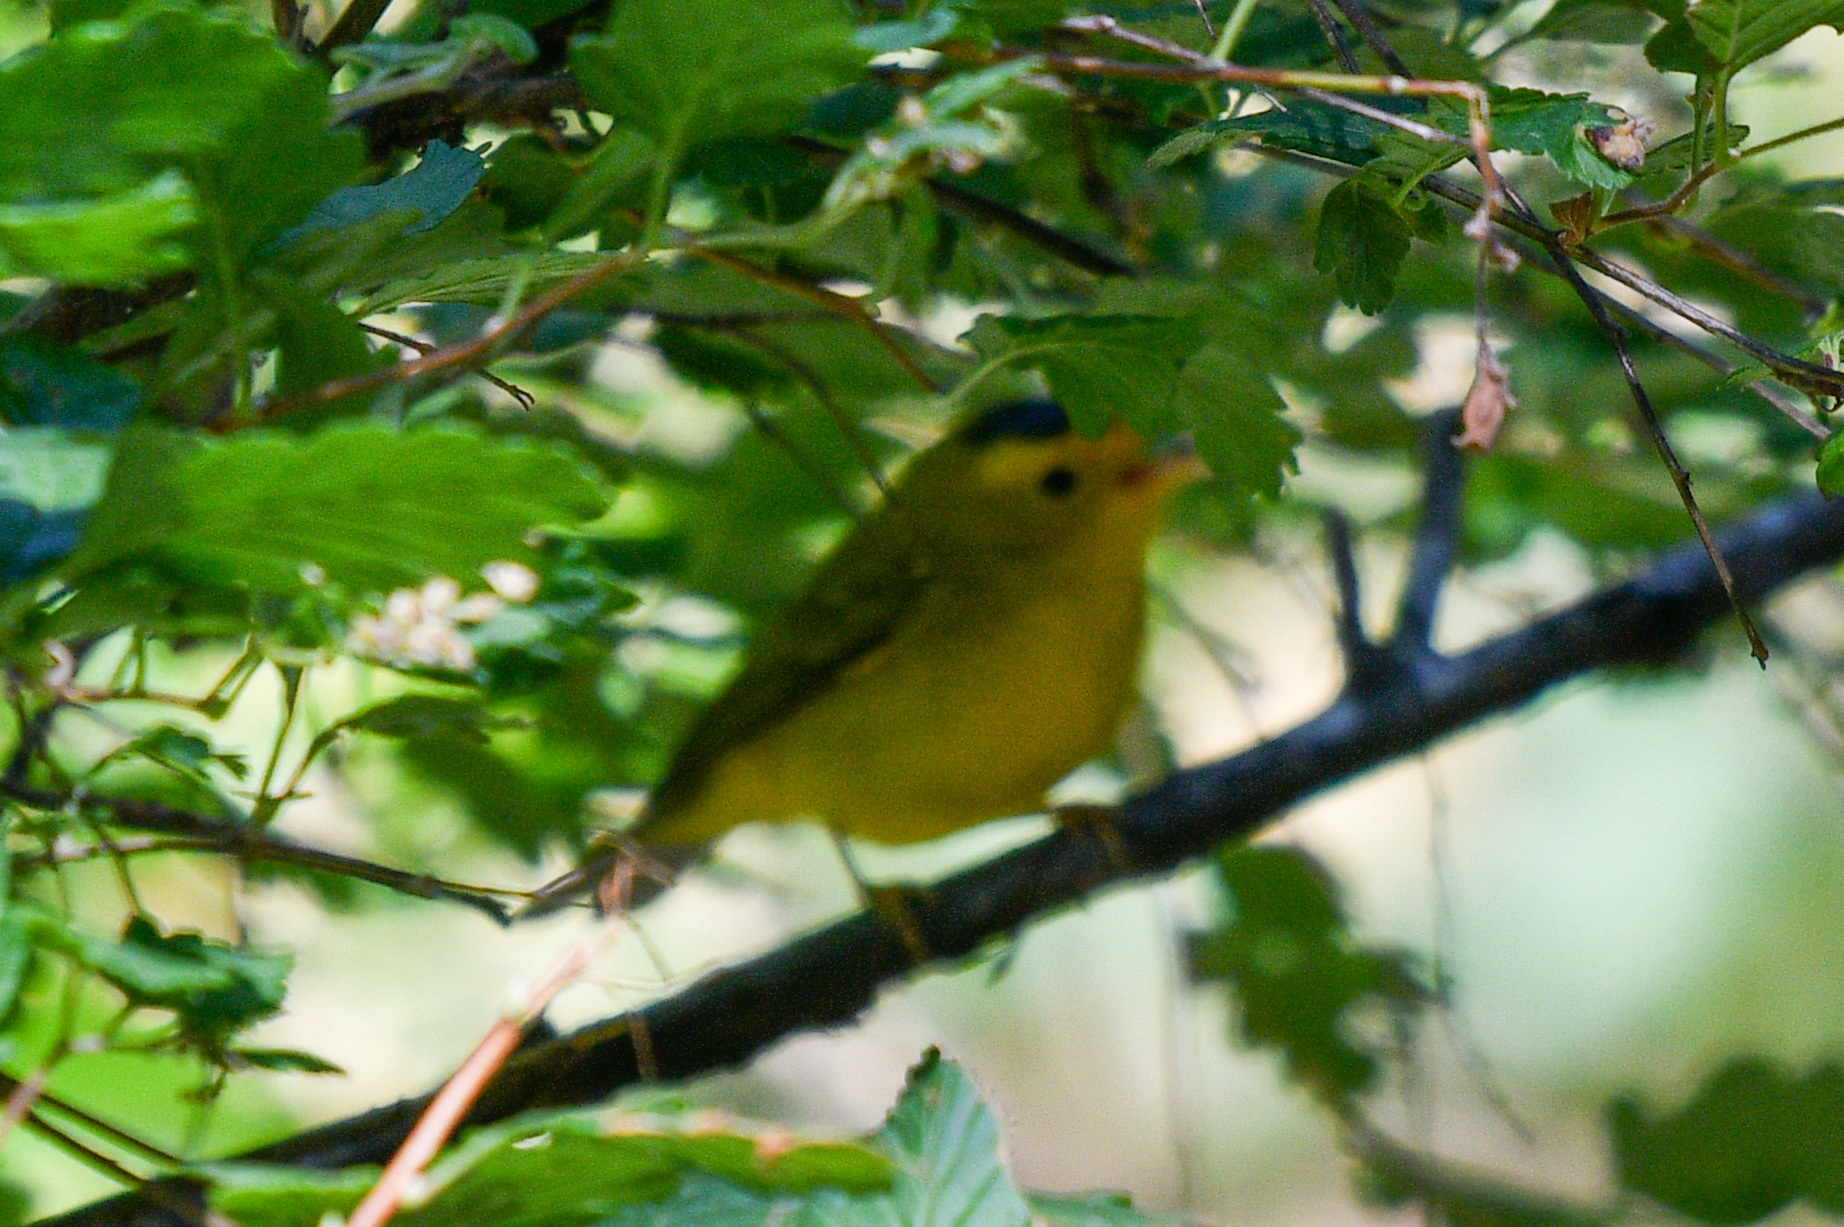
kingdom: Animalia
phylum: Chordata
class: Aves
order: Passeriformes
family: Parulidae
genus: Cardellina
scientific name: Cardellina pusilla
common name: Wilson's warbler
